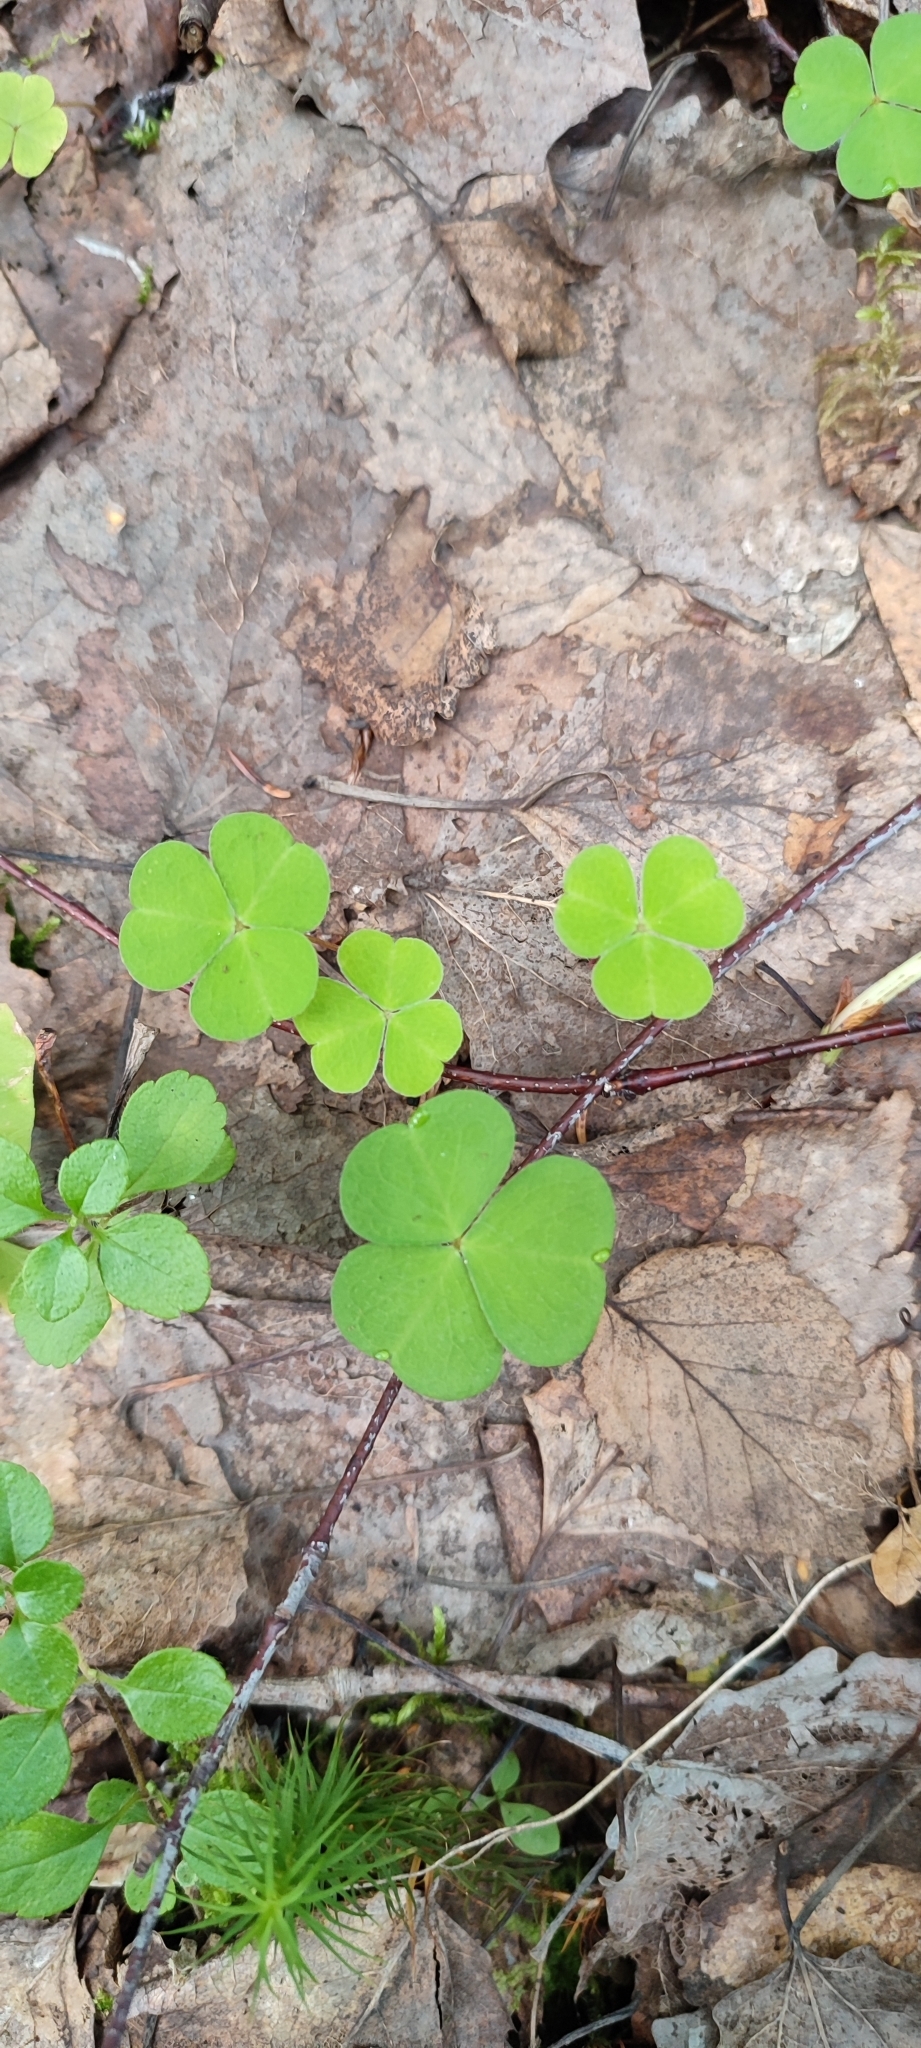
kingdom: Plantae
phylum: Tracheophyta
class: Magnoliopsida
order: Oxalidales
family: Oxalidaceae
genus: Oxalis
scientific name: Oxalis acetosella
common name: Wood-sorrel
